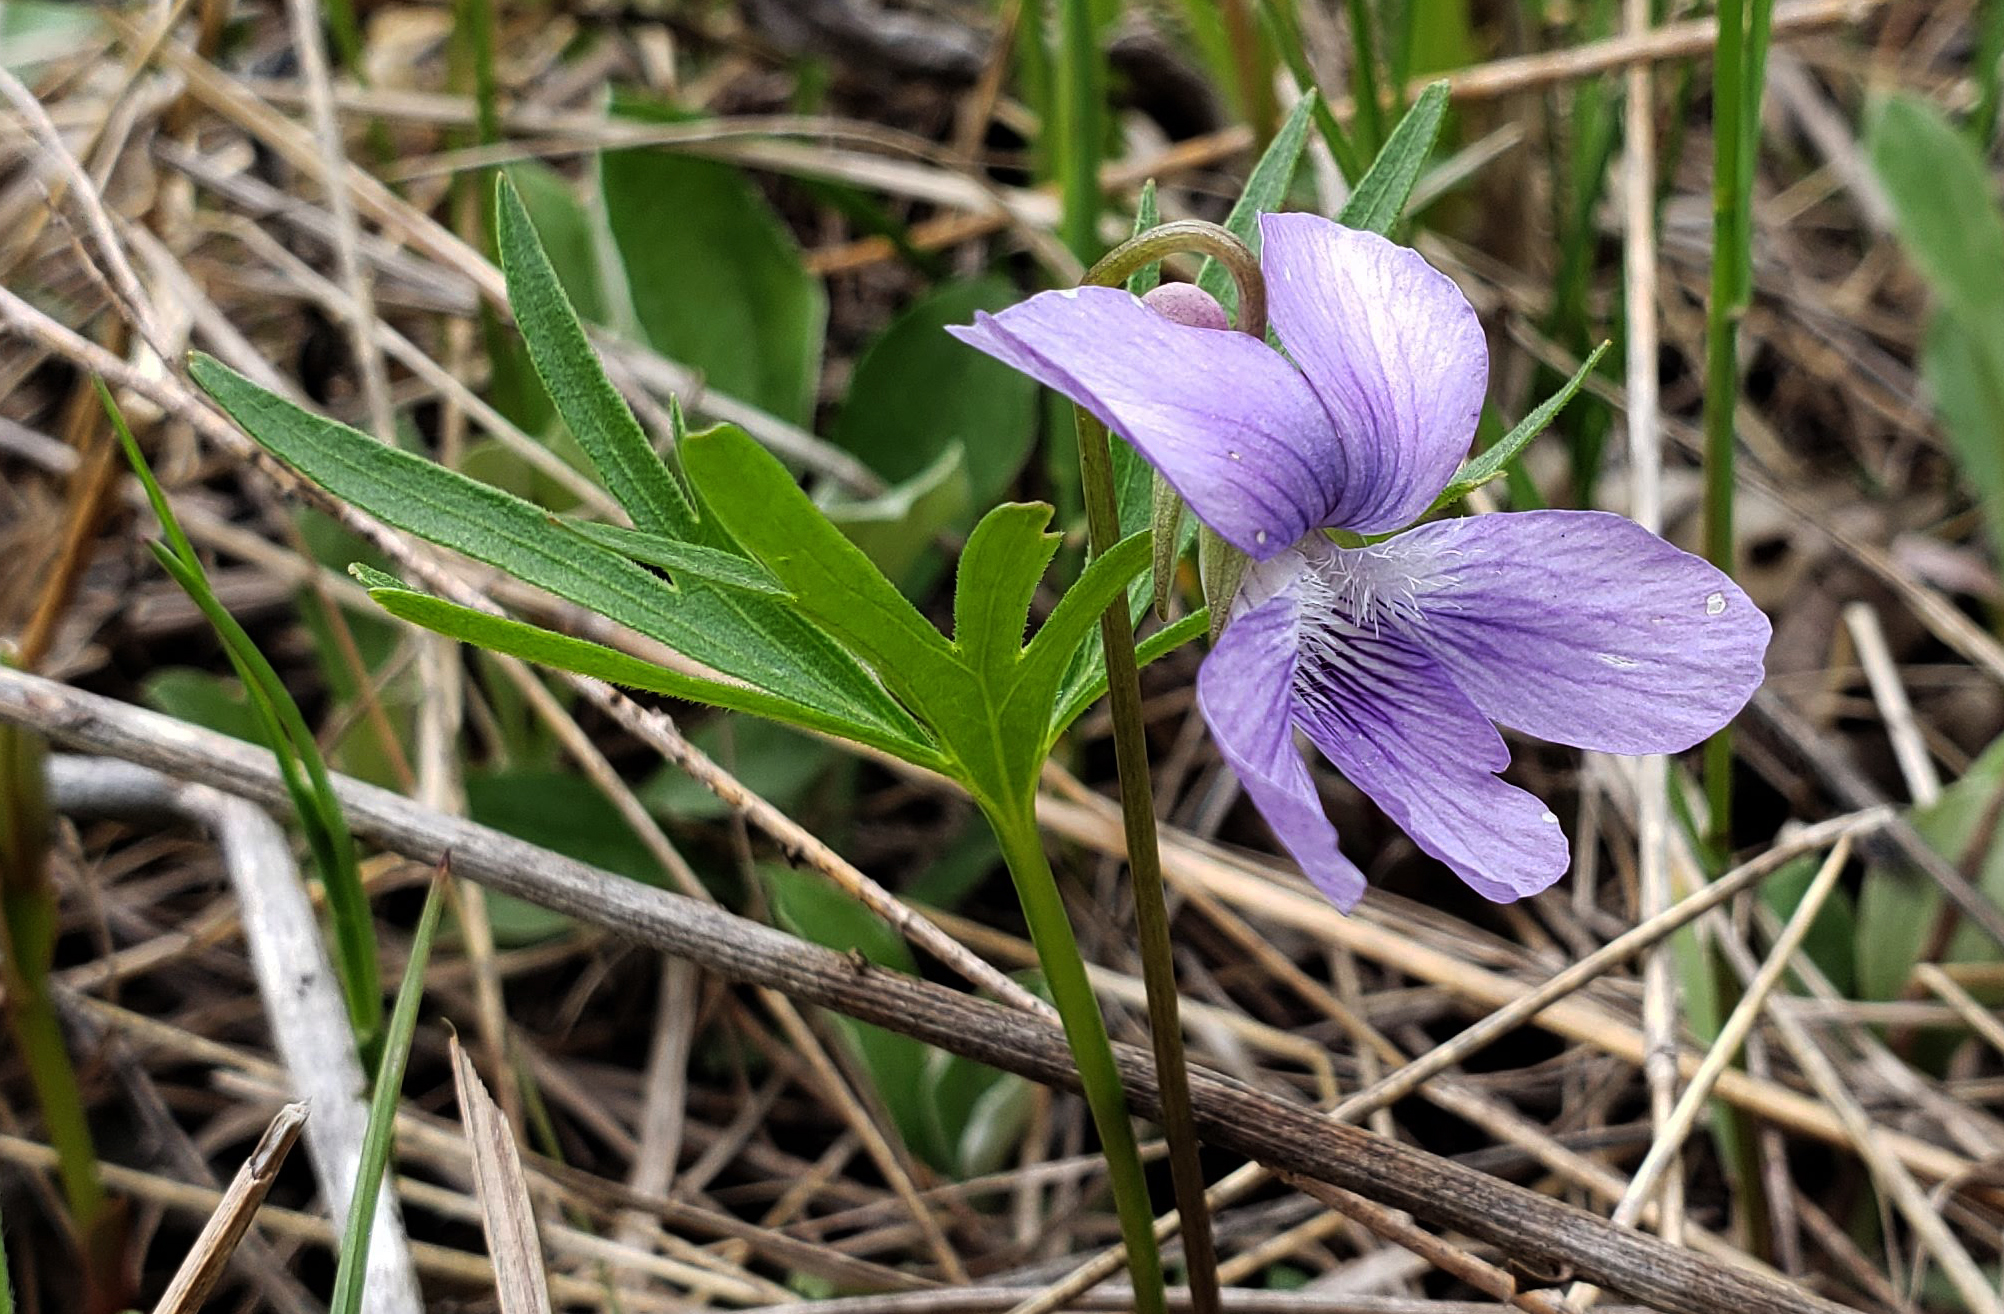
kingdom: Plantae
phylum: Tracheophyta
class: Magnoliopsida
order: Malpighiales
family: Violaceae
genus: Viola
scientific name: Viola pedatifida
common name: Prairie violet
